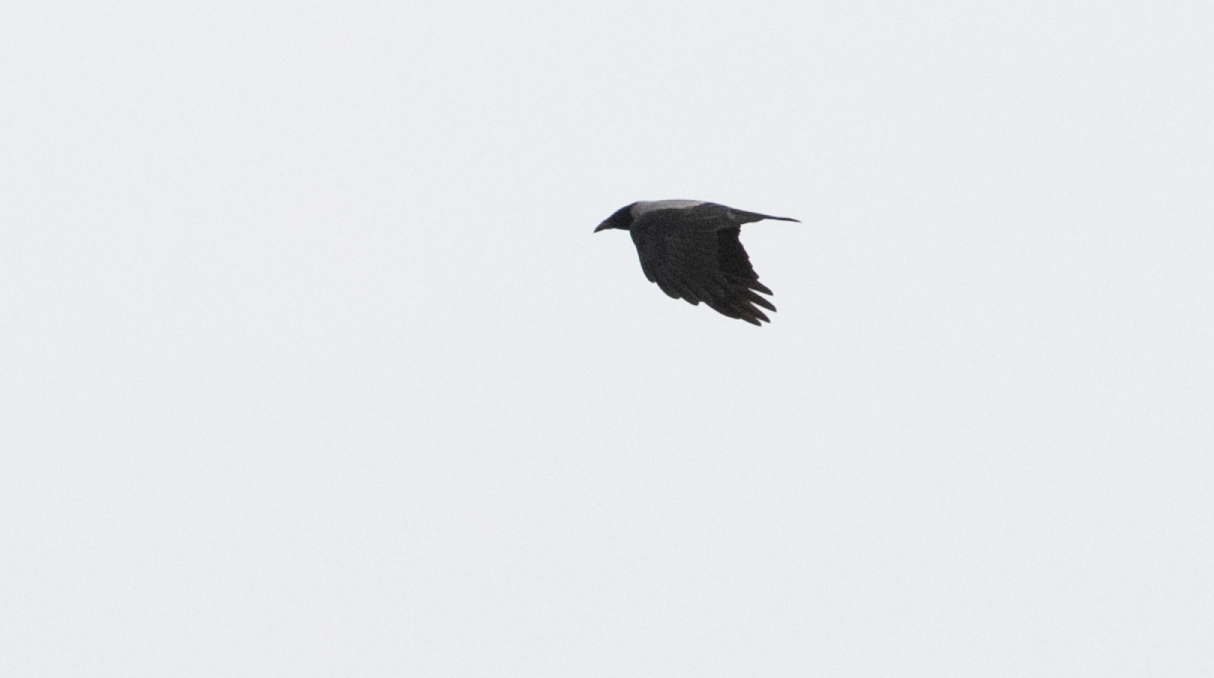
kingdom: Animalia
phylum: Chordata
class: Aves
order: Passeriformes
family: Corvidae
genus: Corvus
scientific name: Corvus cornix
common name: Hooded crow
